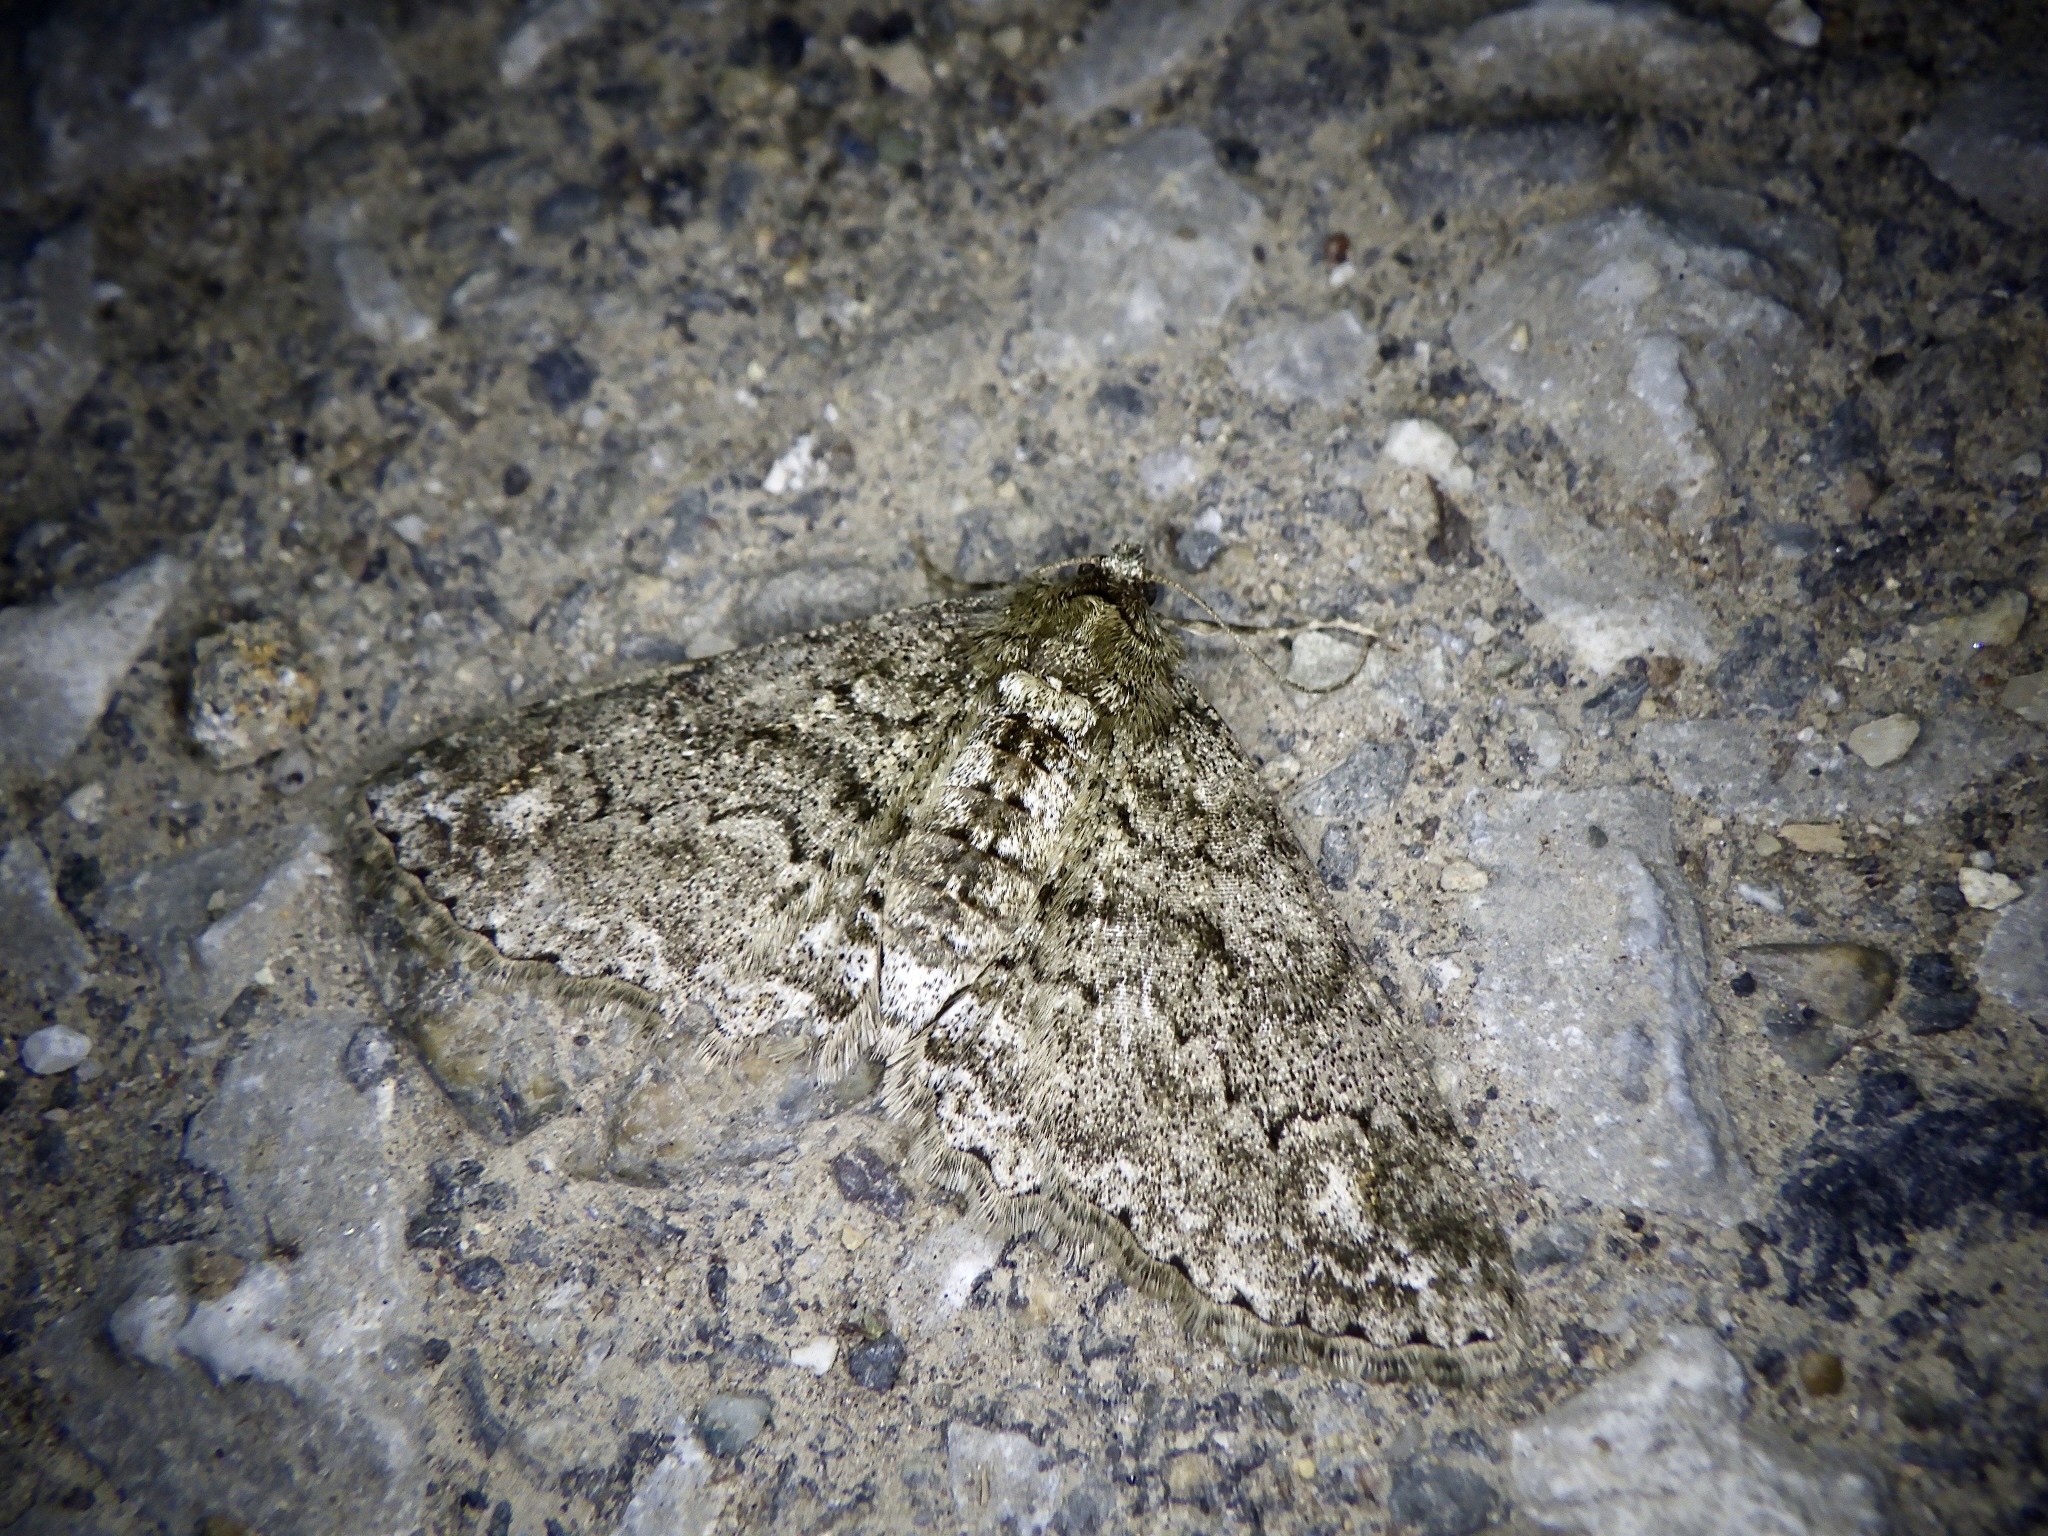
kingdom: Animalia
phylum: Arthropoda
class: Insecta
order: Lepidoptera
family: Geometridae
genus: Cleora
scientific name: Cleora leucophaea
